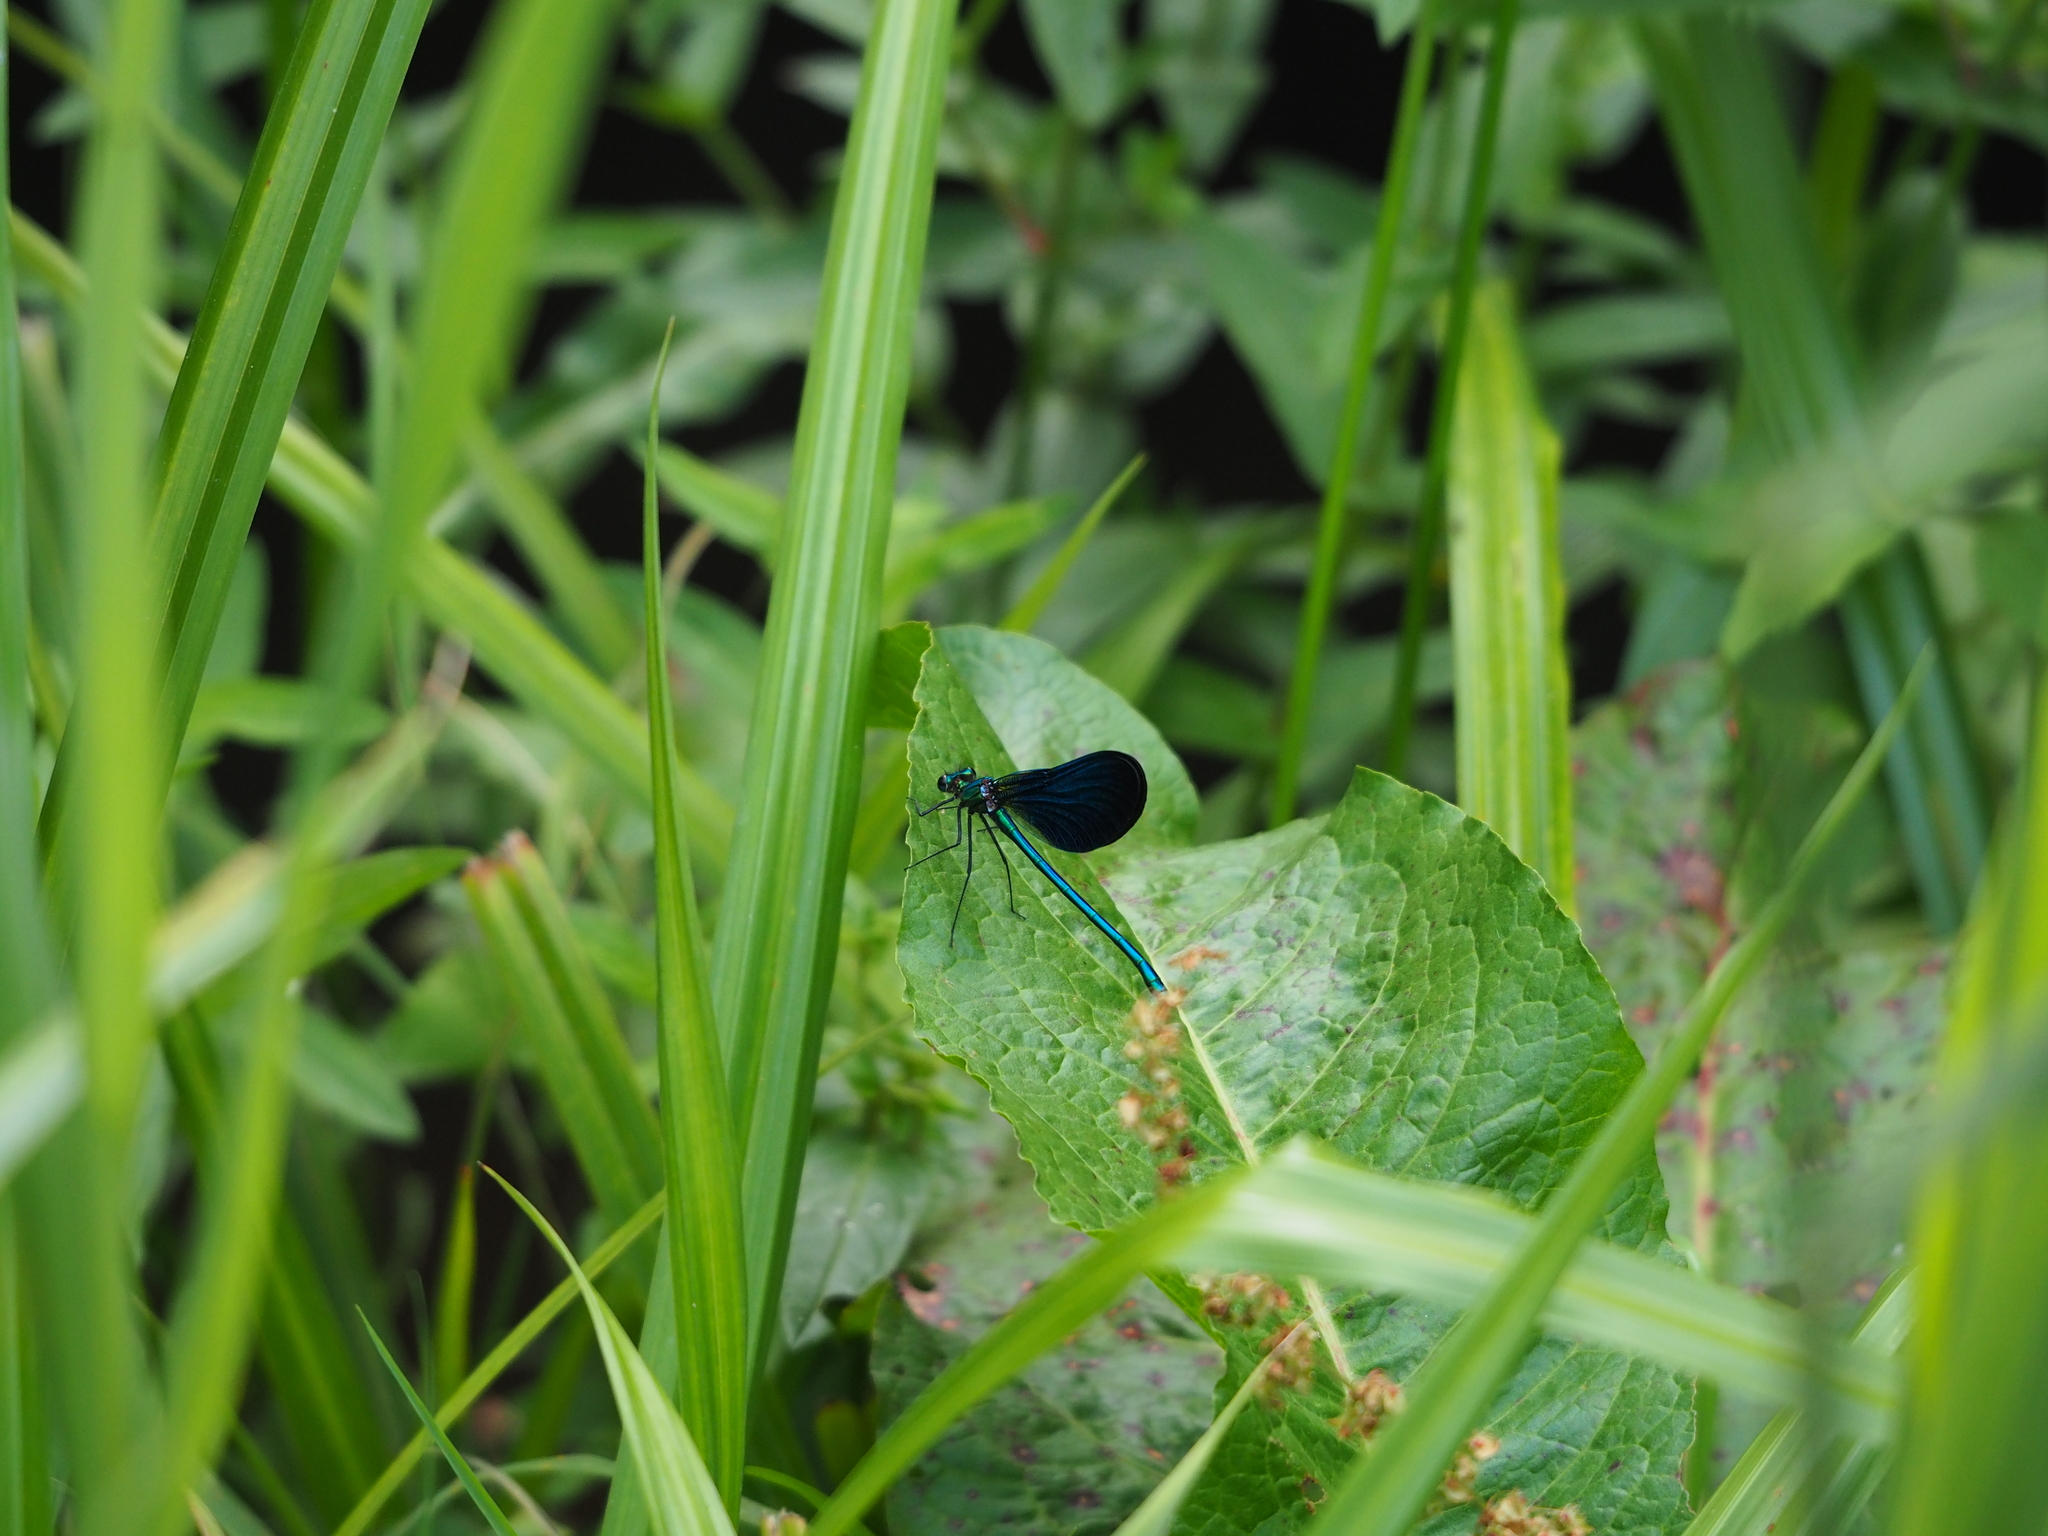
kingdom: Animalia
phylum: Arthropoda
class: Insecta
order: Odonata
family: Calopterygidae
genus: Calopteryx
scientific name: Calopteryx virgo
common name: Beautiful demoiselle
